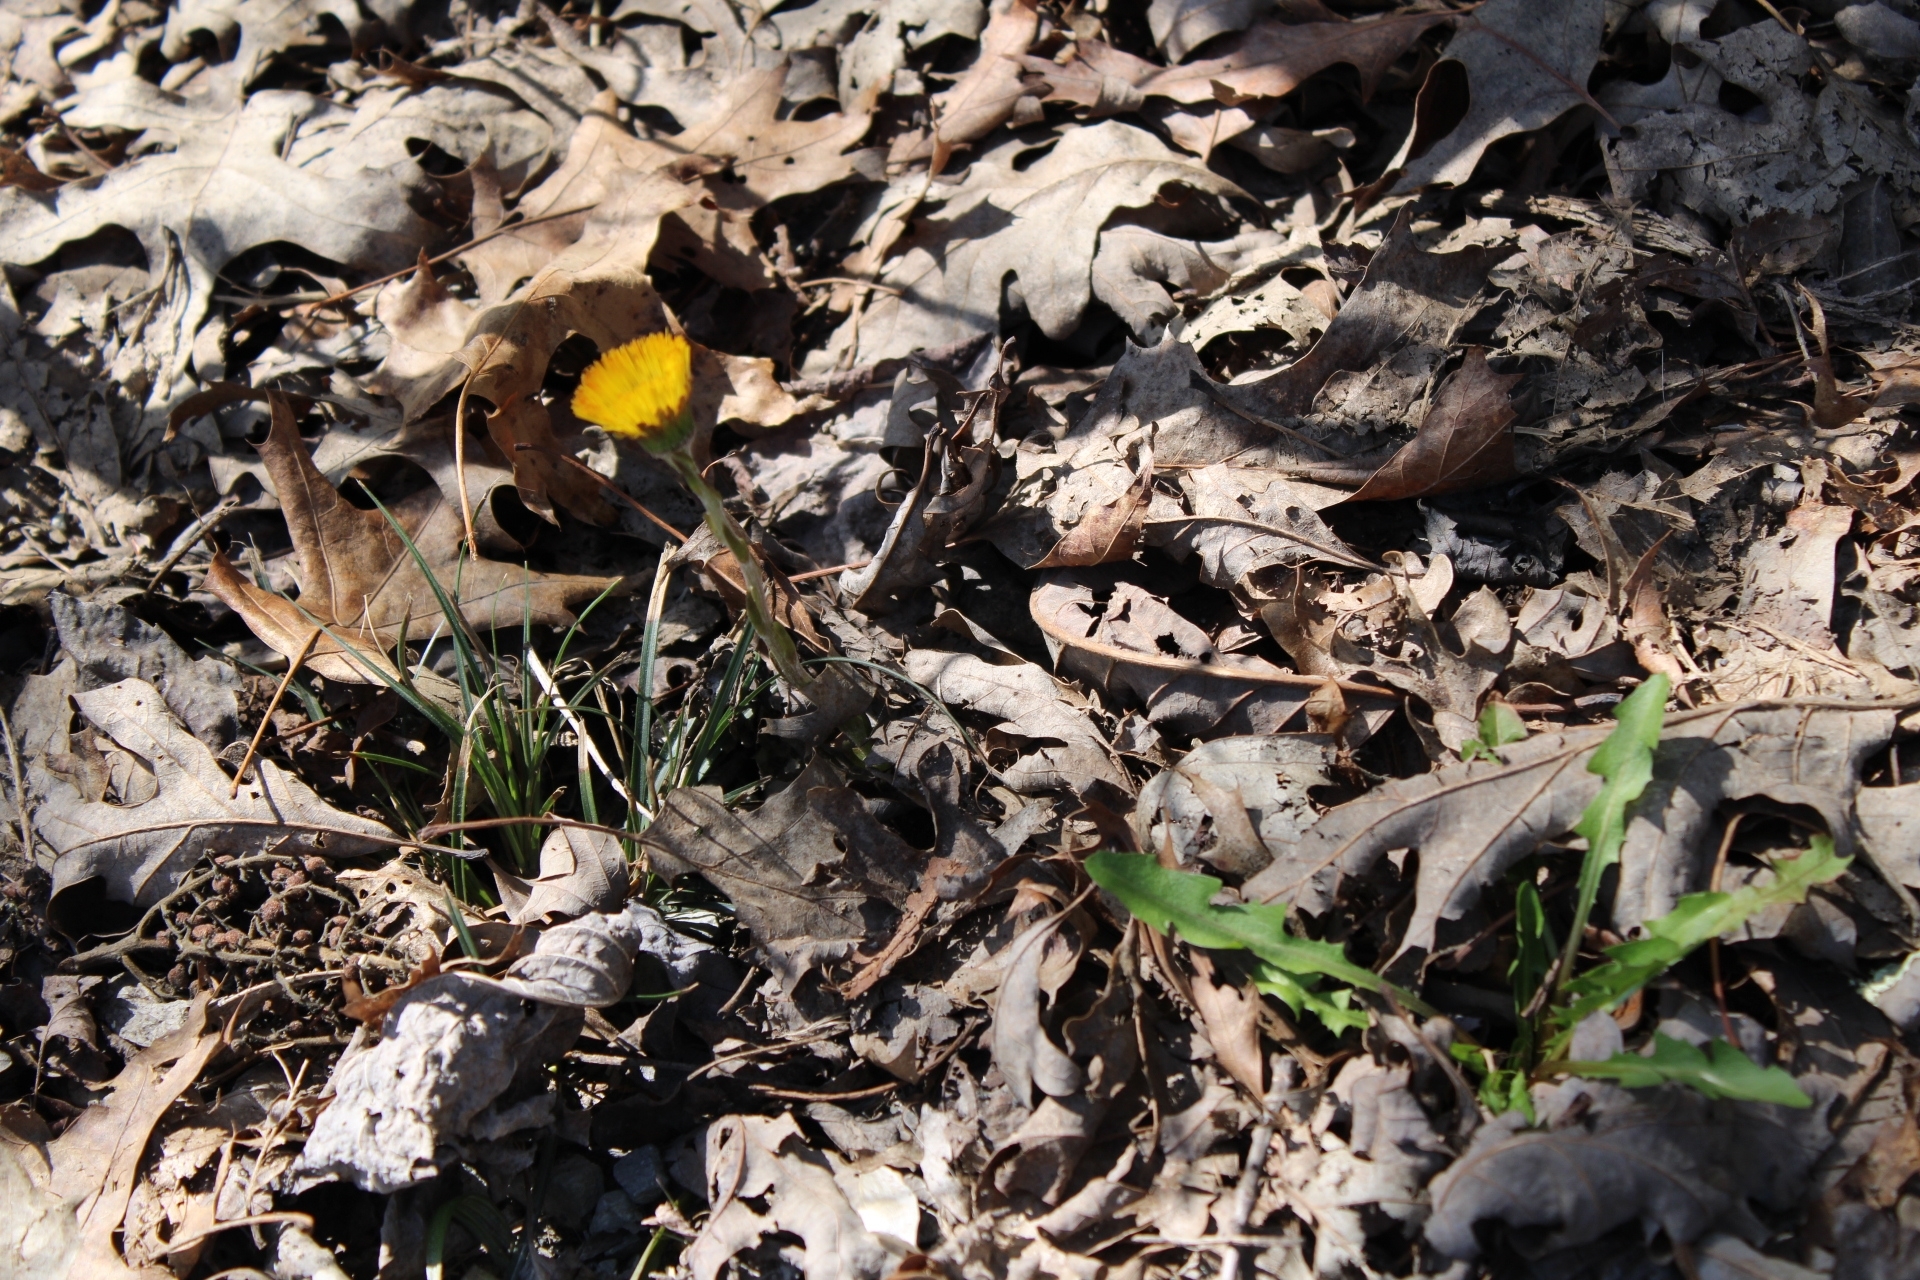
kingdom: Plantae
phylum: Tracheophyta
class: Magnoliopsida
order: Asterales
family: Asteraceae
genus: Tussilago
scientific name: Tussilago farfara
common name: Coltsfoot
